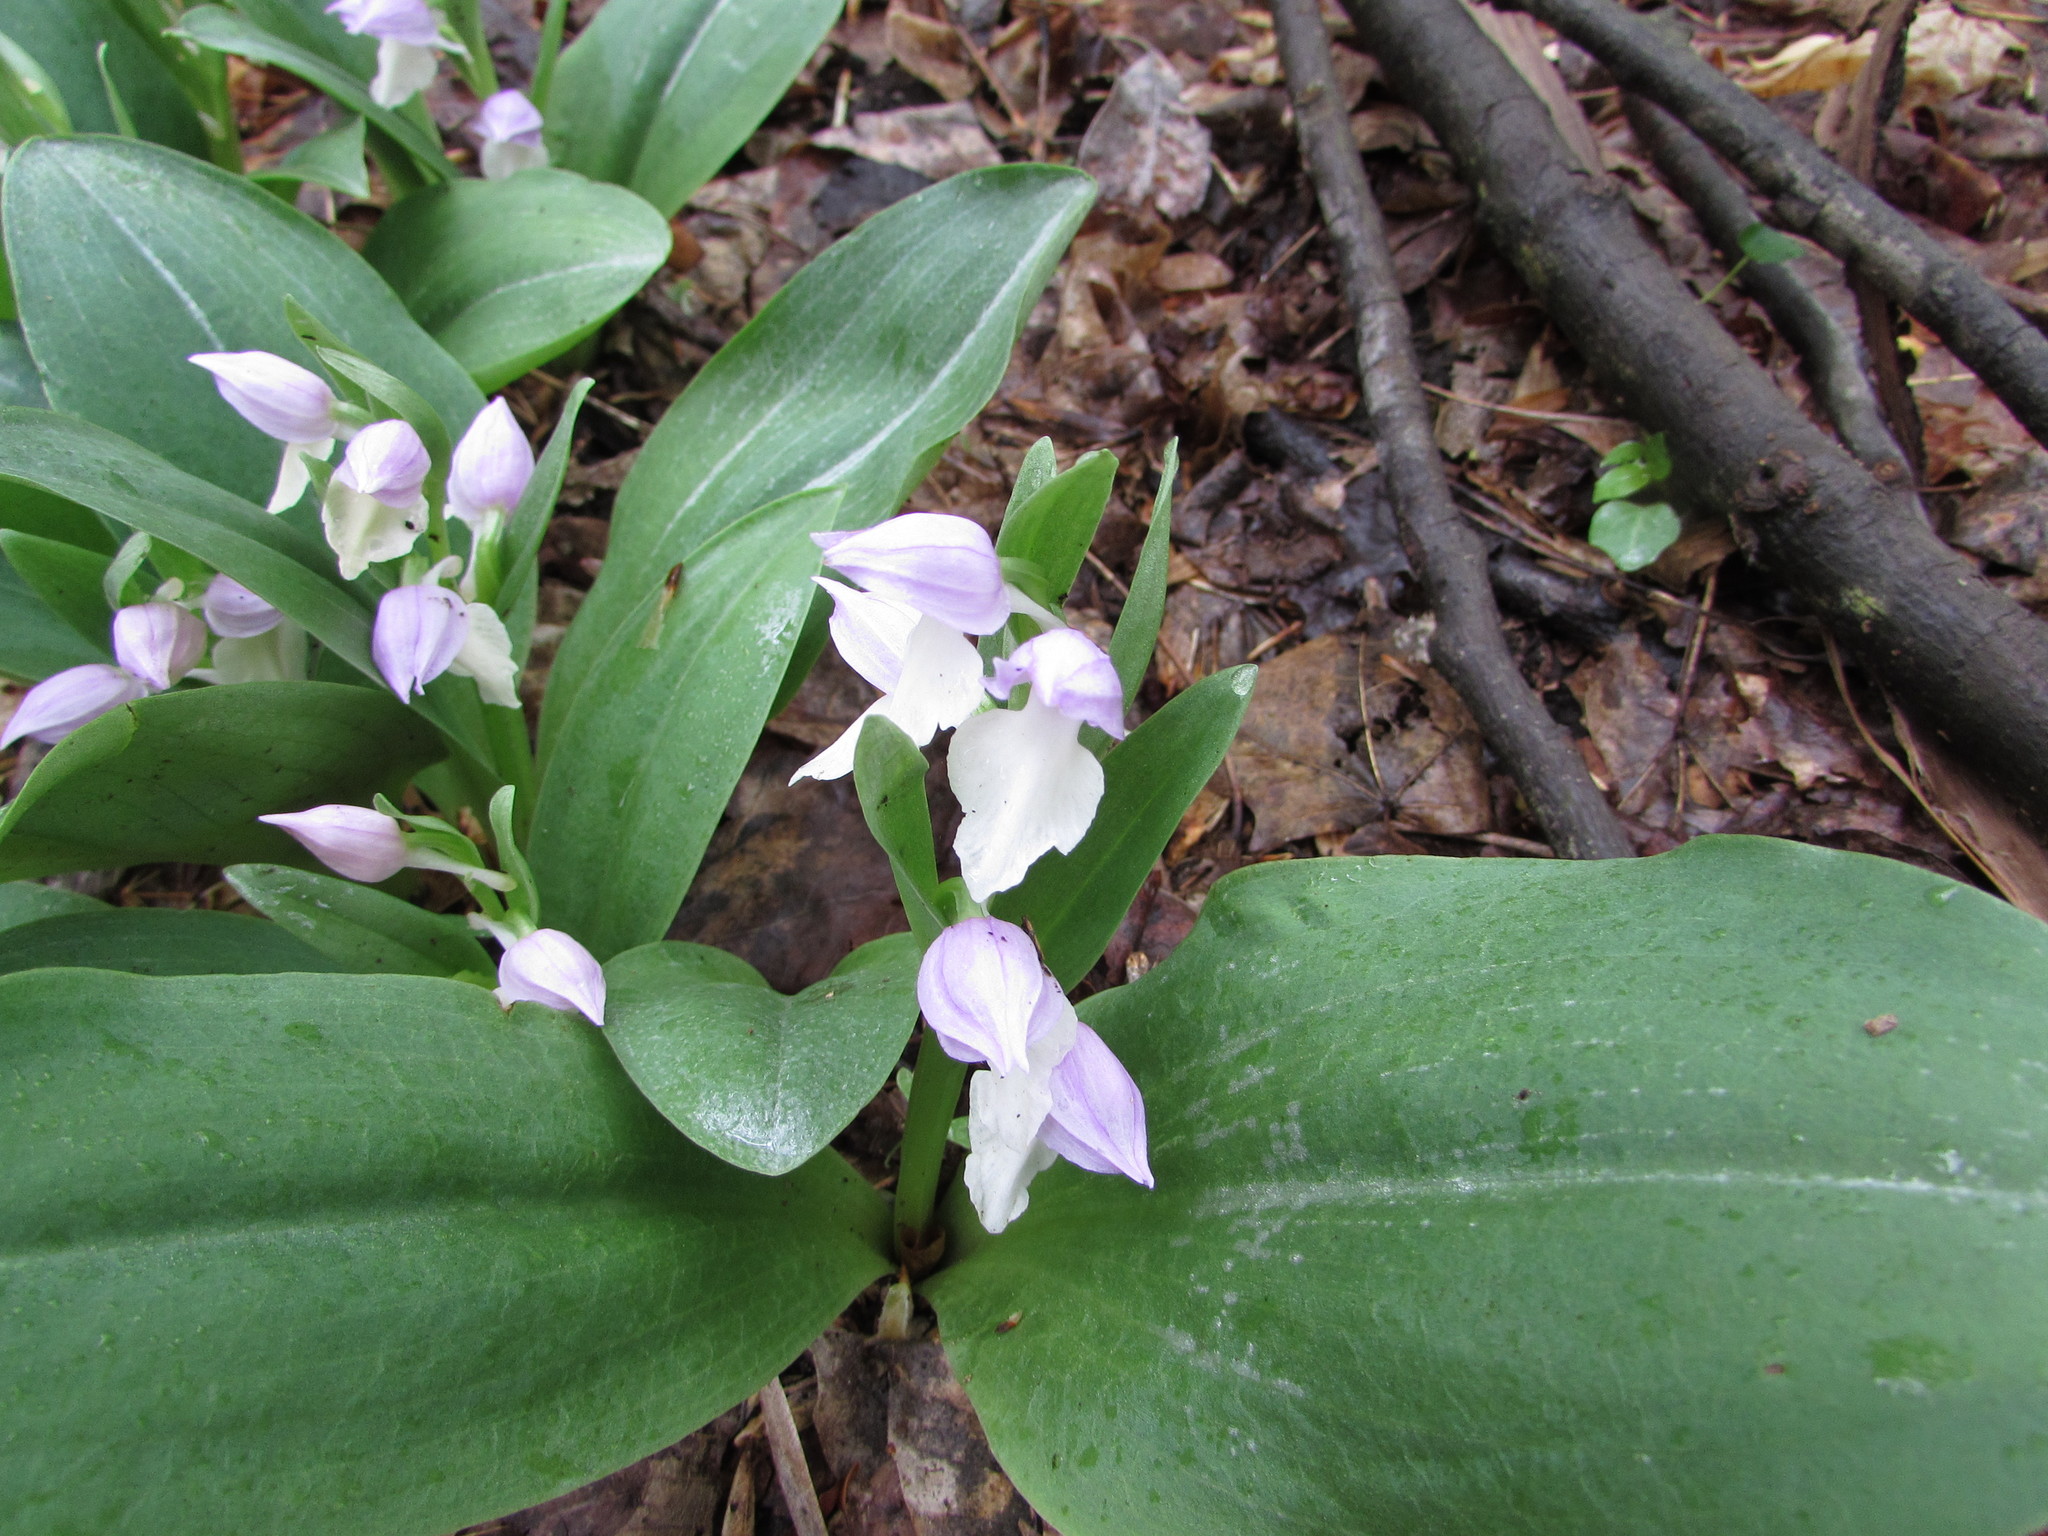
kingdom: Plantae
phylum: Tracheophyta
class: Liliopsida
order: Asparagales
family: Orchidaceae
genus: Galearis
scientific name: Galearis spectabilis
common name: Purple-hooded orchis
